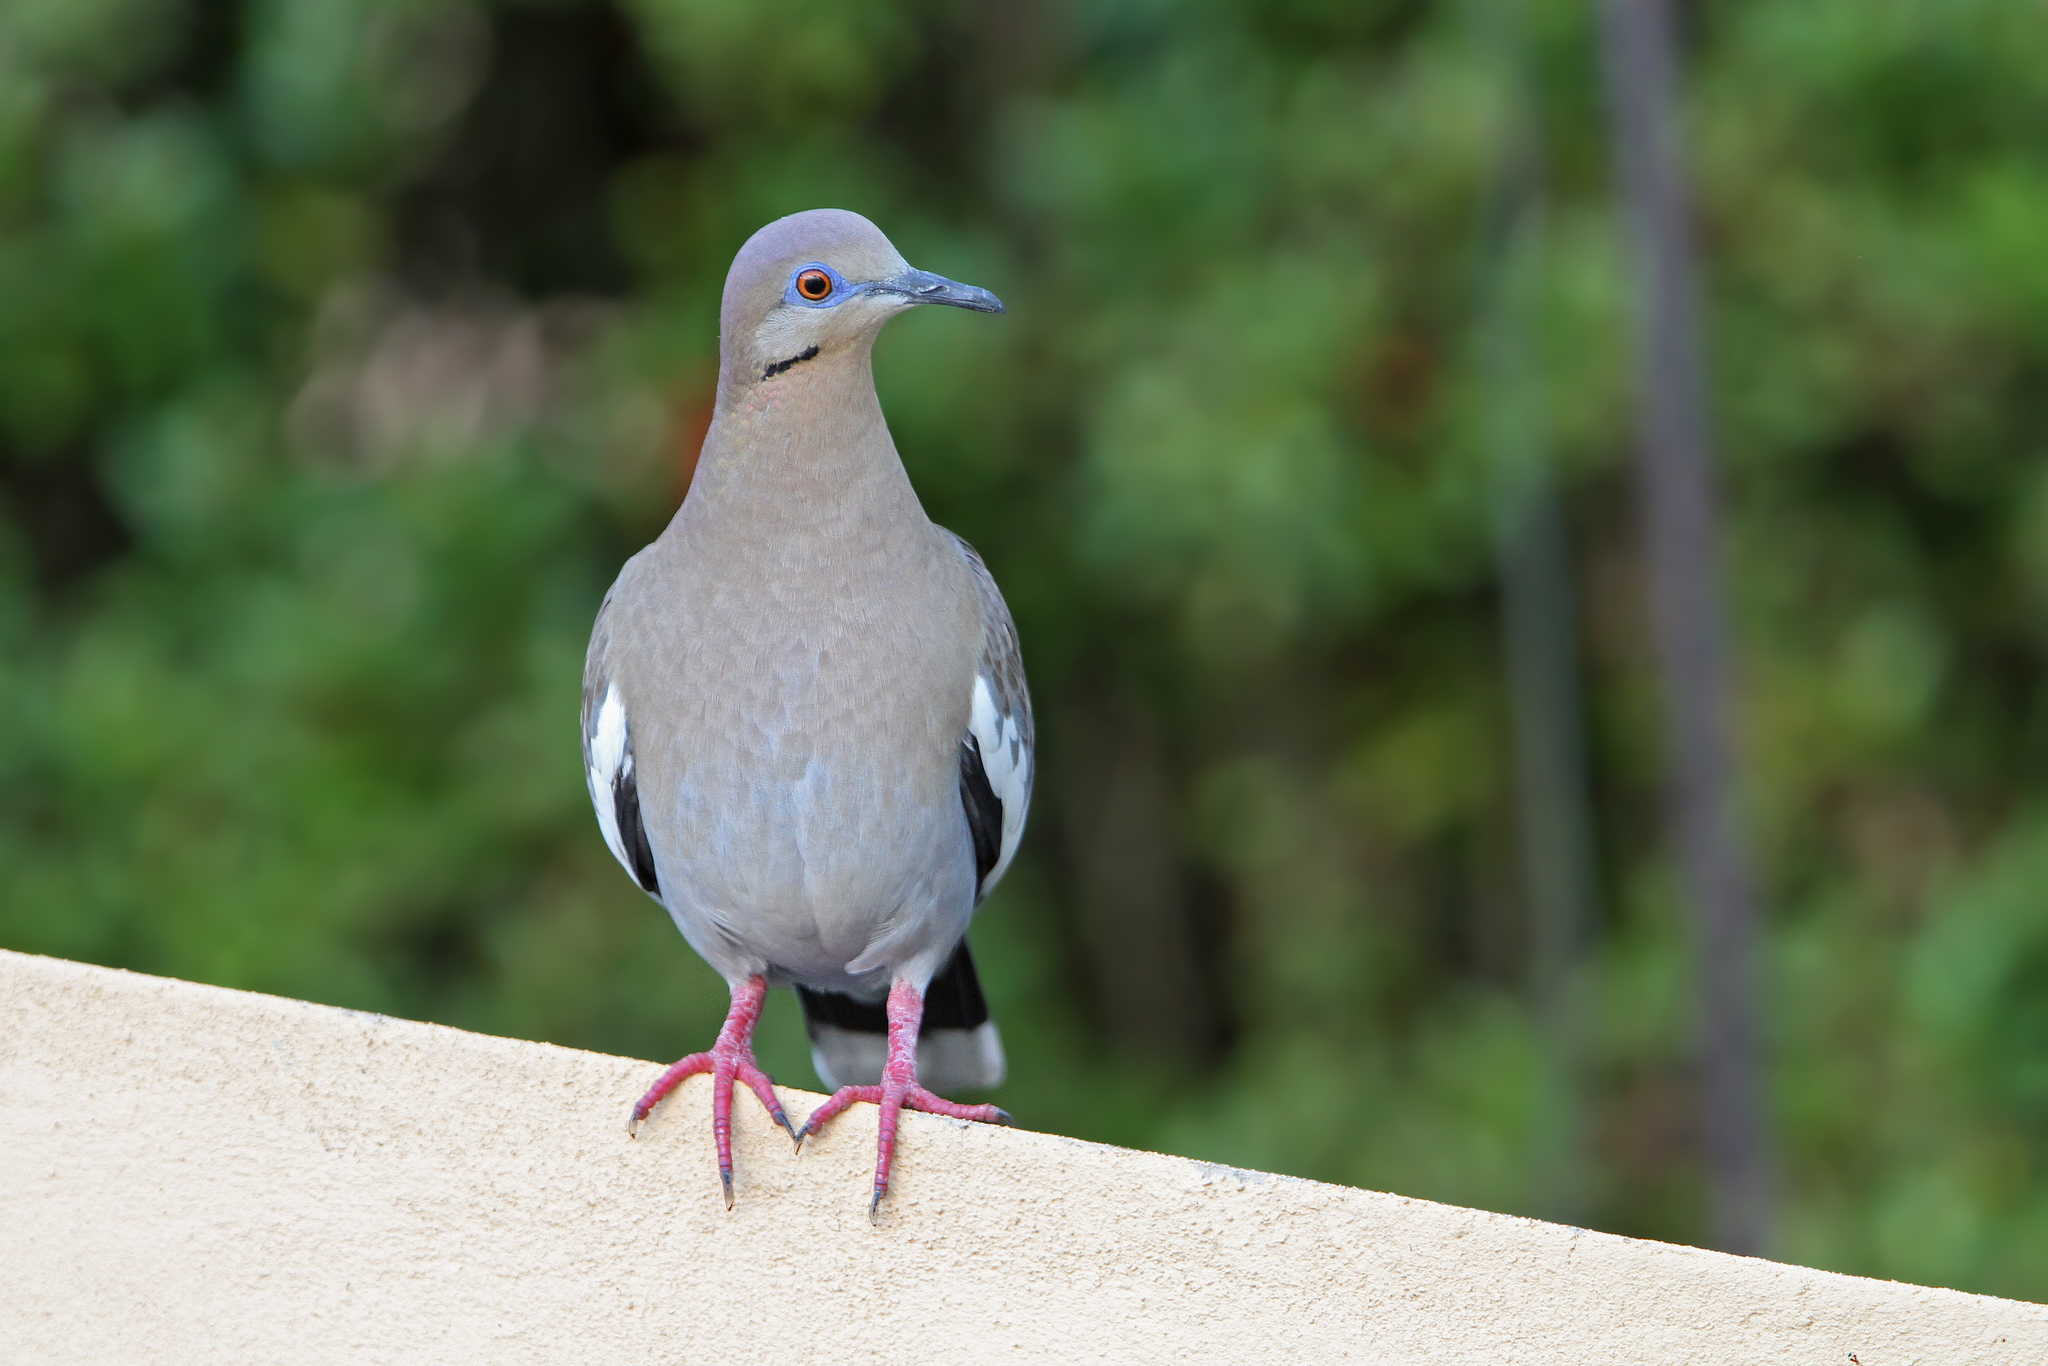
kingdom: Animalia
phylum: Chordata
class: Aves
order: Columbiformes
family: Columbidae
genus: Zenaida
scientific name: Zenaida asiatica
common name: White-winged dove
